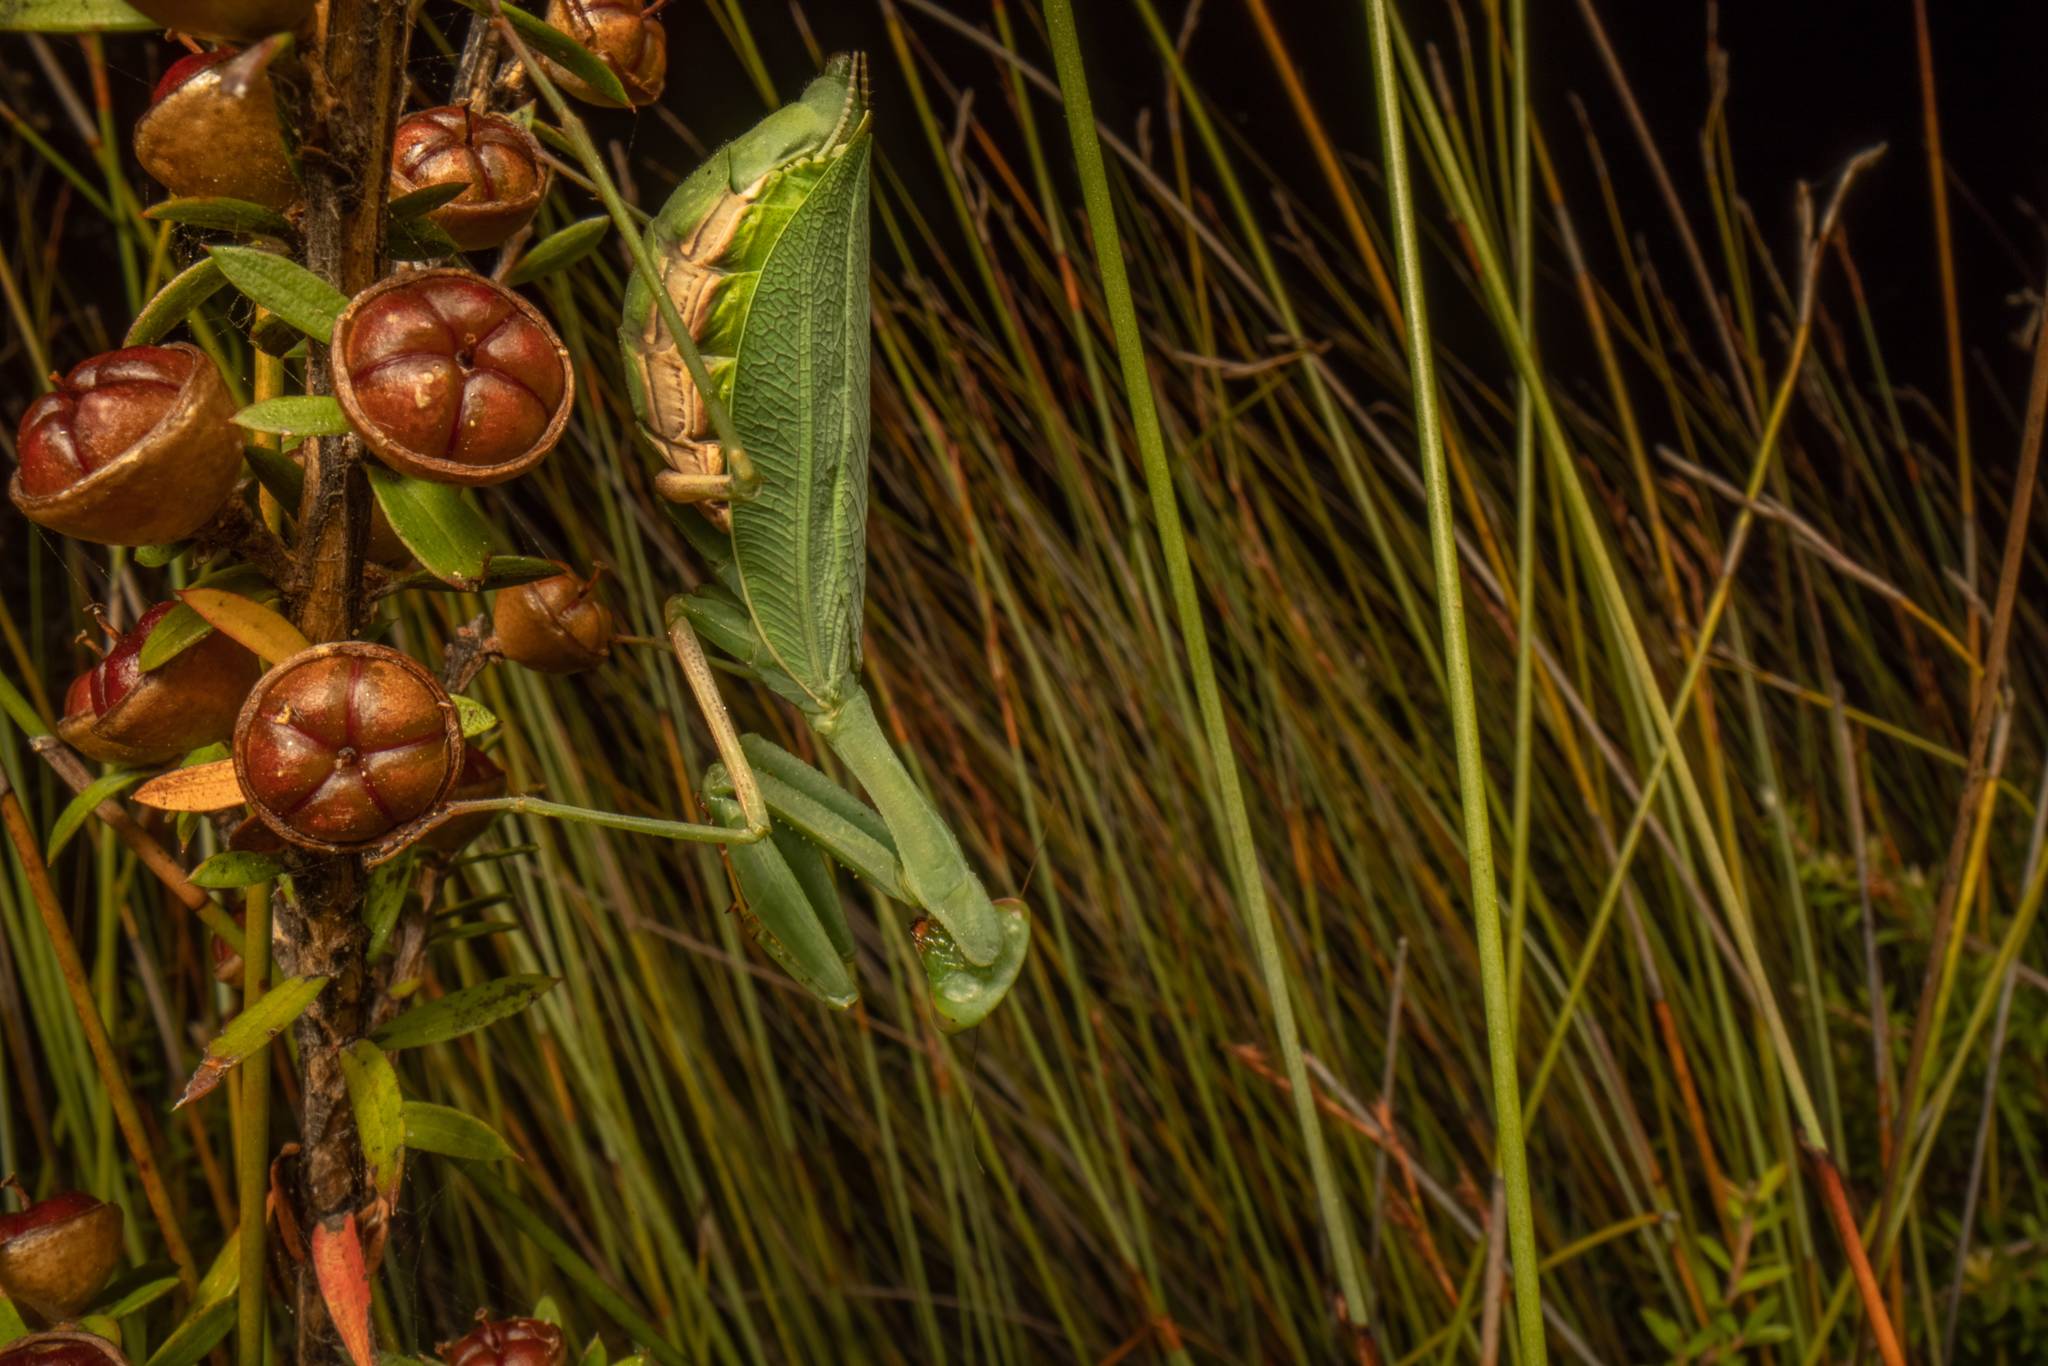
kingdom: Animalia
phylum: Arthropoda
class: Insecta
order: Mantodea
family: Miomantidae
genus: Miomantis
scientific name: Miomantis caffra
